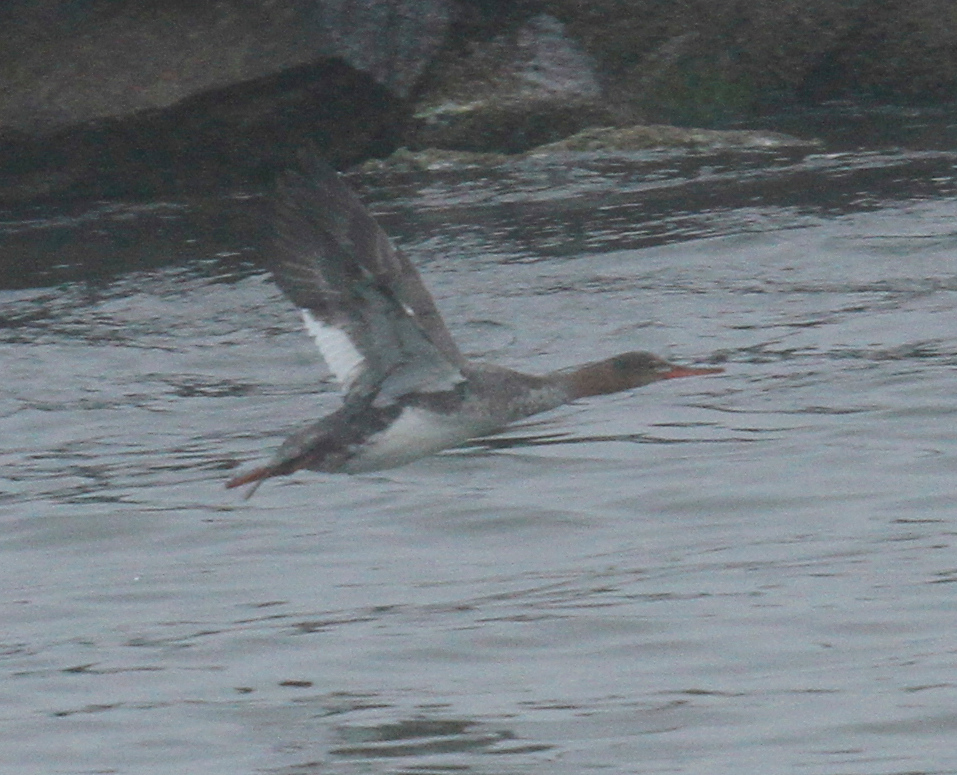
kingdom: Animalia
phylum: Chordata
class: Aves
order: Anseriformes
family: Anatidae
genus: Mergus
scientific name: Mergus serrator
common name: Red-breasted merganser
